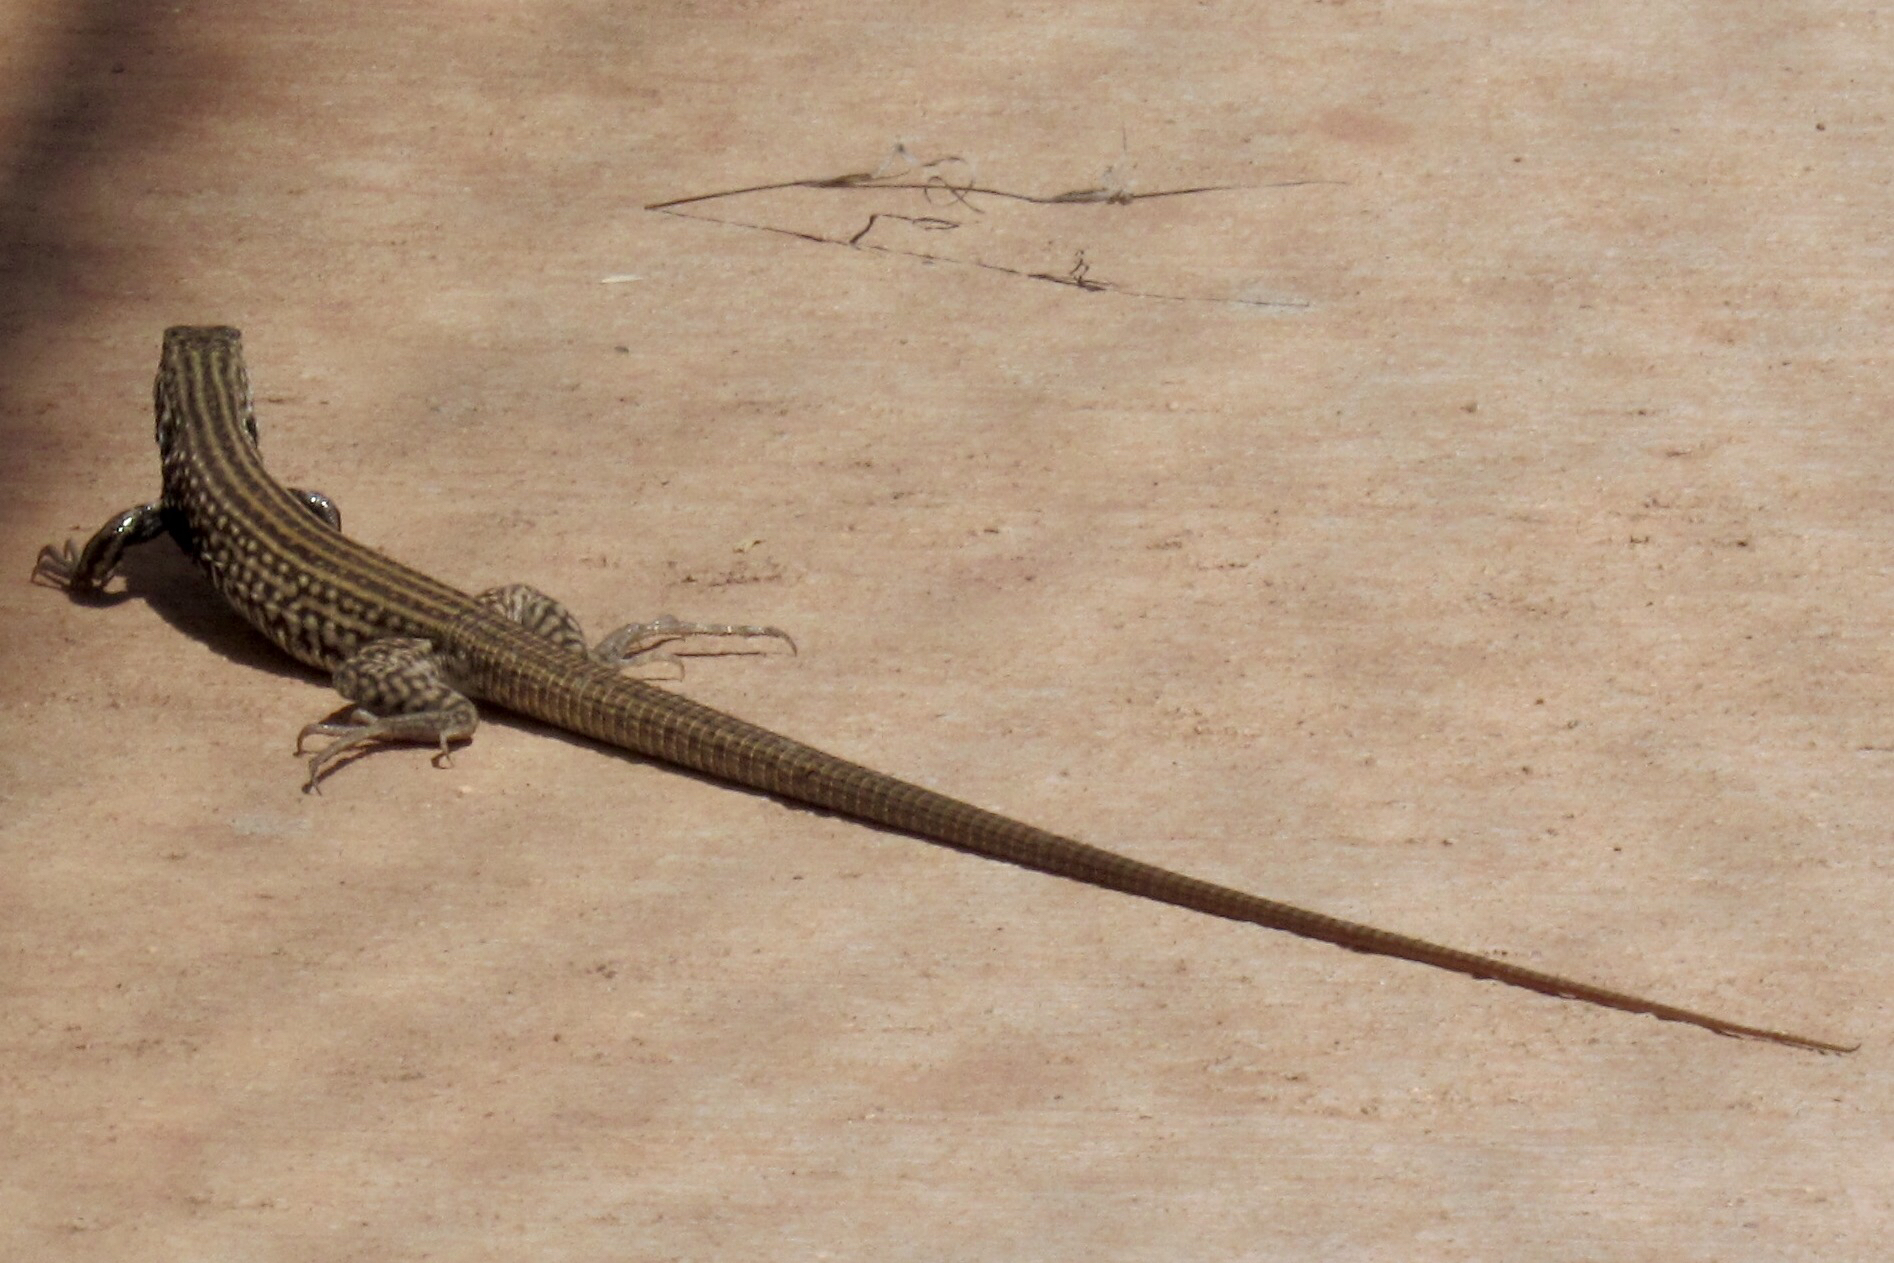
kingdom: Animalia
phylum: Chordata
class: Squamata
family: Teiidae
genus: Aspidoscelis
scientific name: Aspidoscelis tigris
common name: Tiger whiptail
